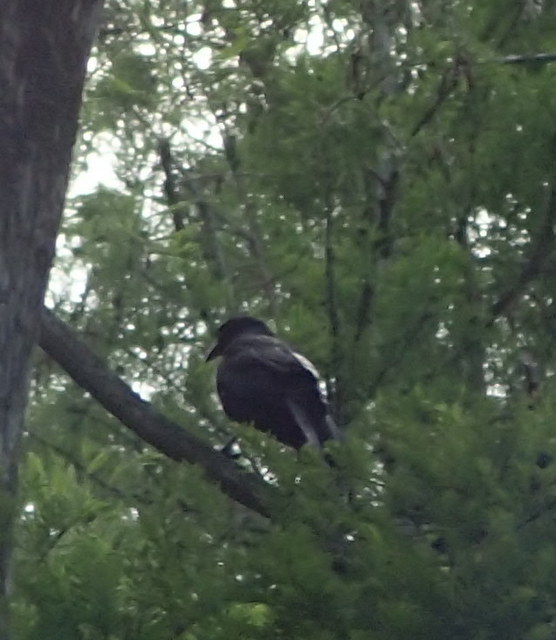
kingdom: Animalia
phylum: Chordata
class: Aves
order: Passeriformes
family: Corvidae
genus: Corvus
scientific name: Corvus
